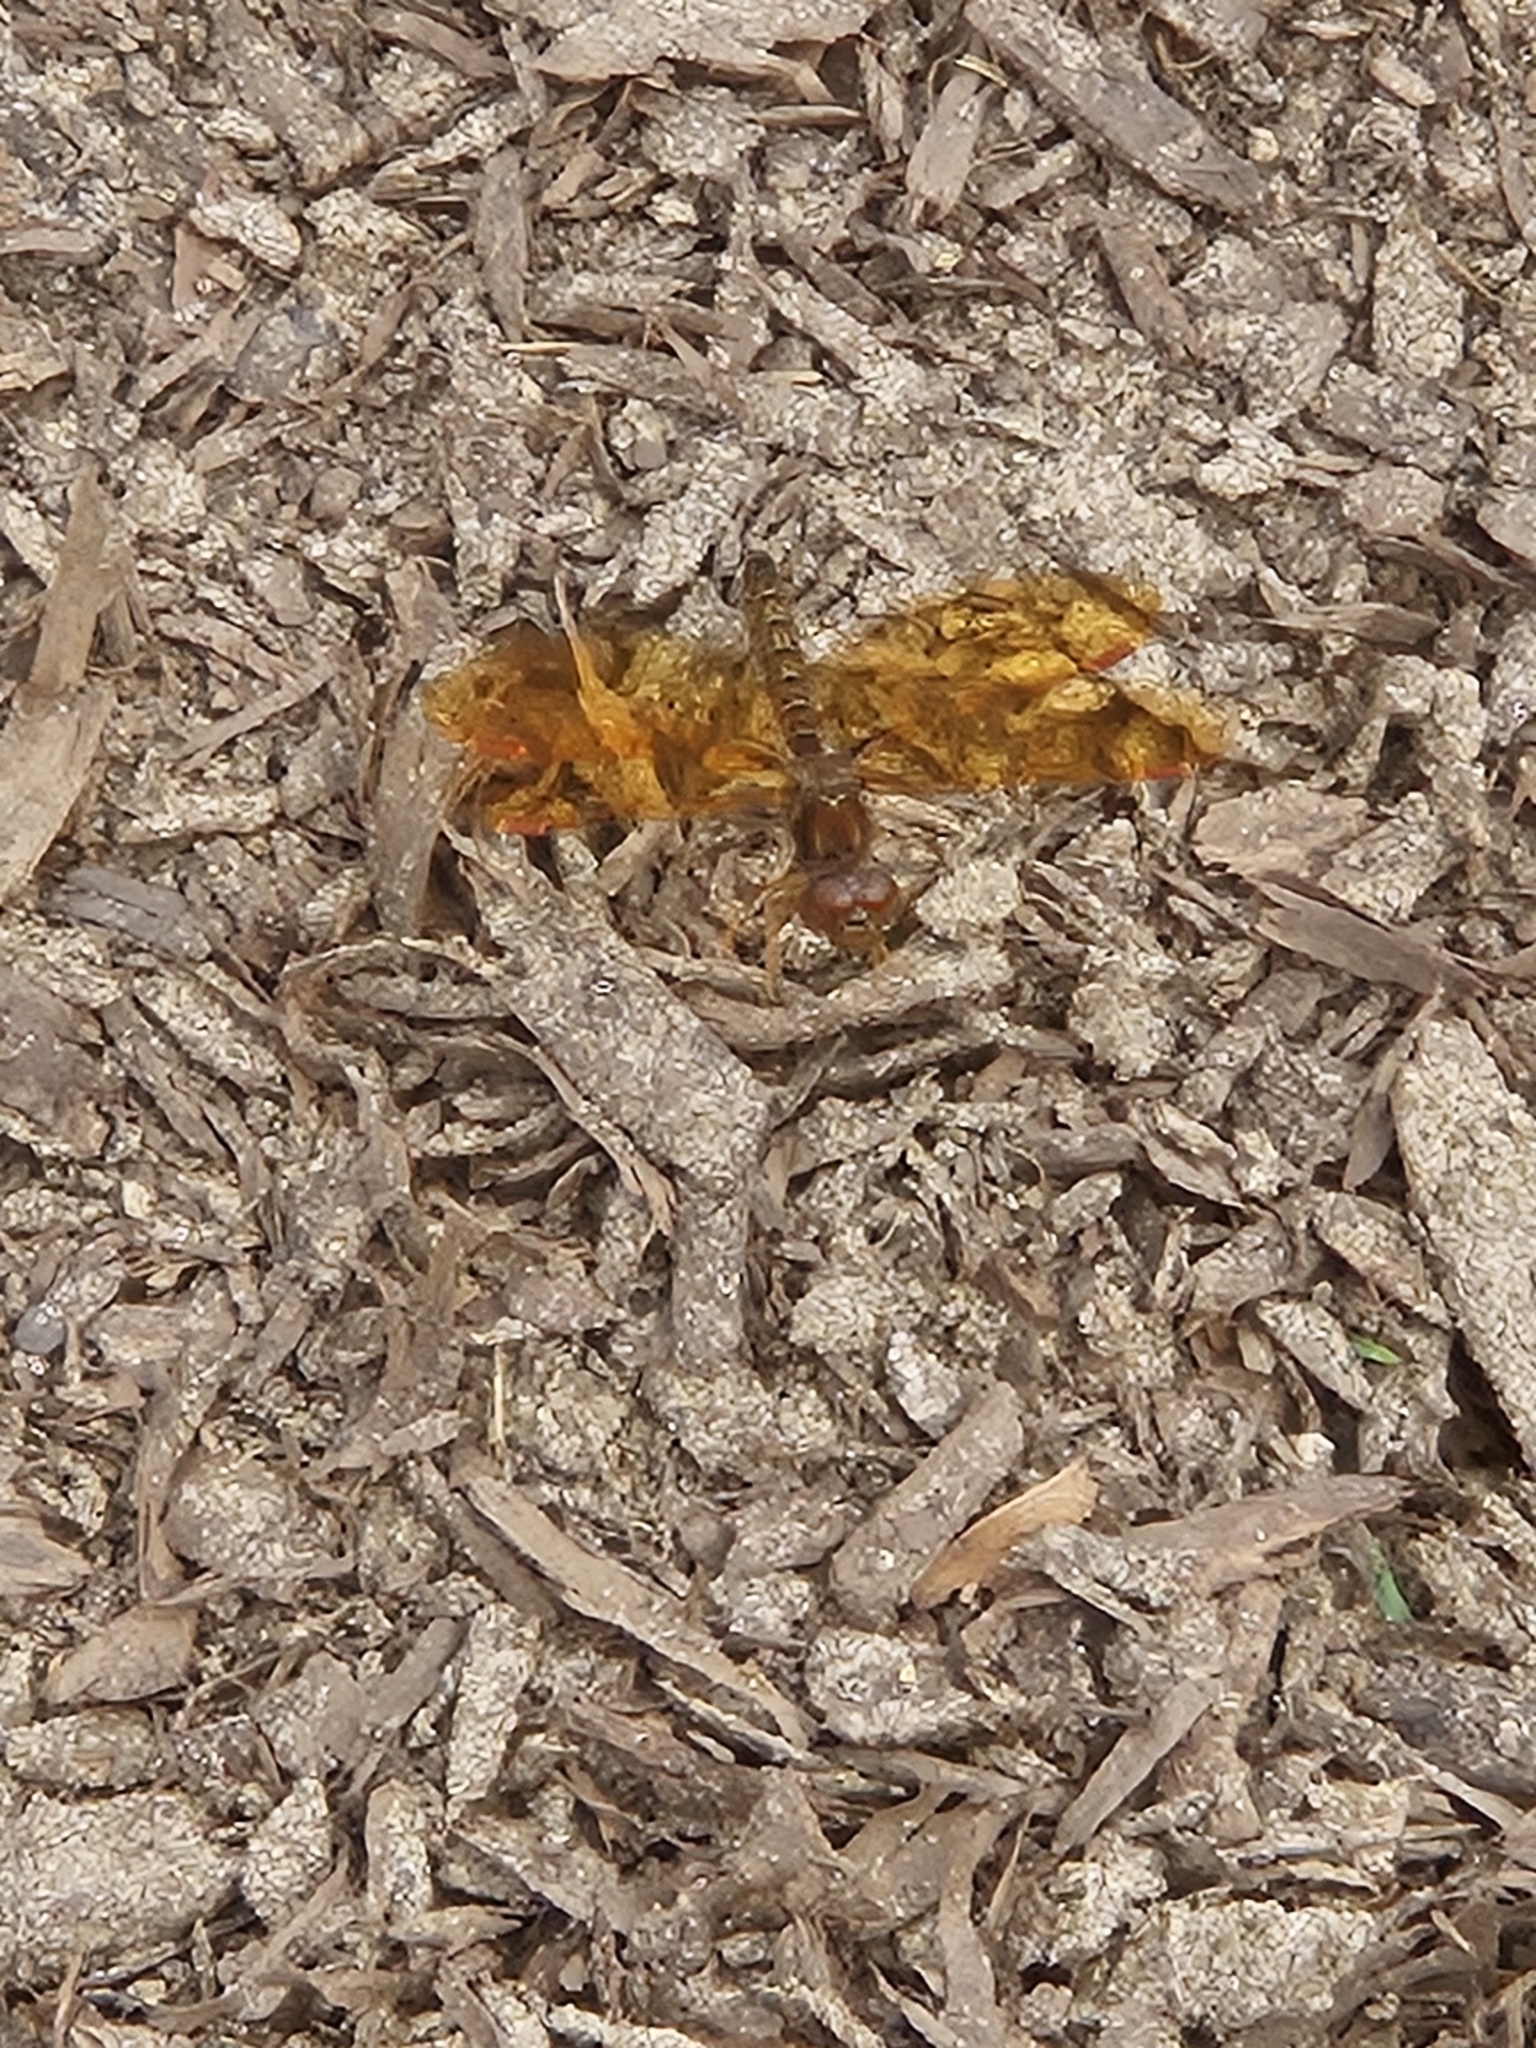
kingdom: Animalia
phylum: Arthropoda
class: Insecta
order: Odonata
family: Libellulidae
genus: Perithemis
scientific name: Perithemis tenera
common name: Eastern amberwing
